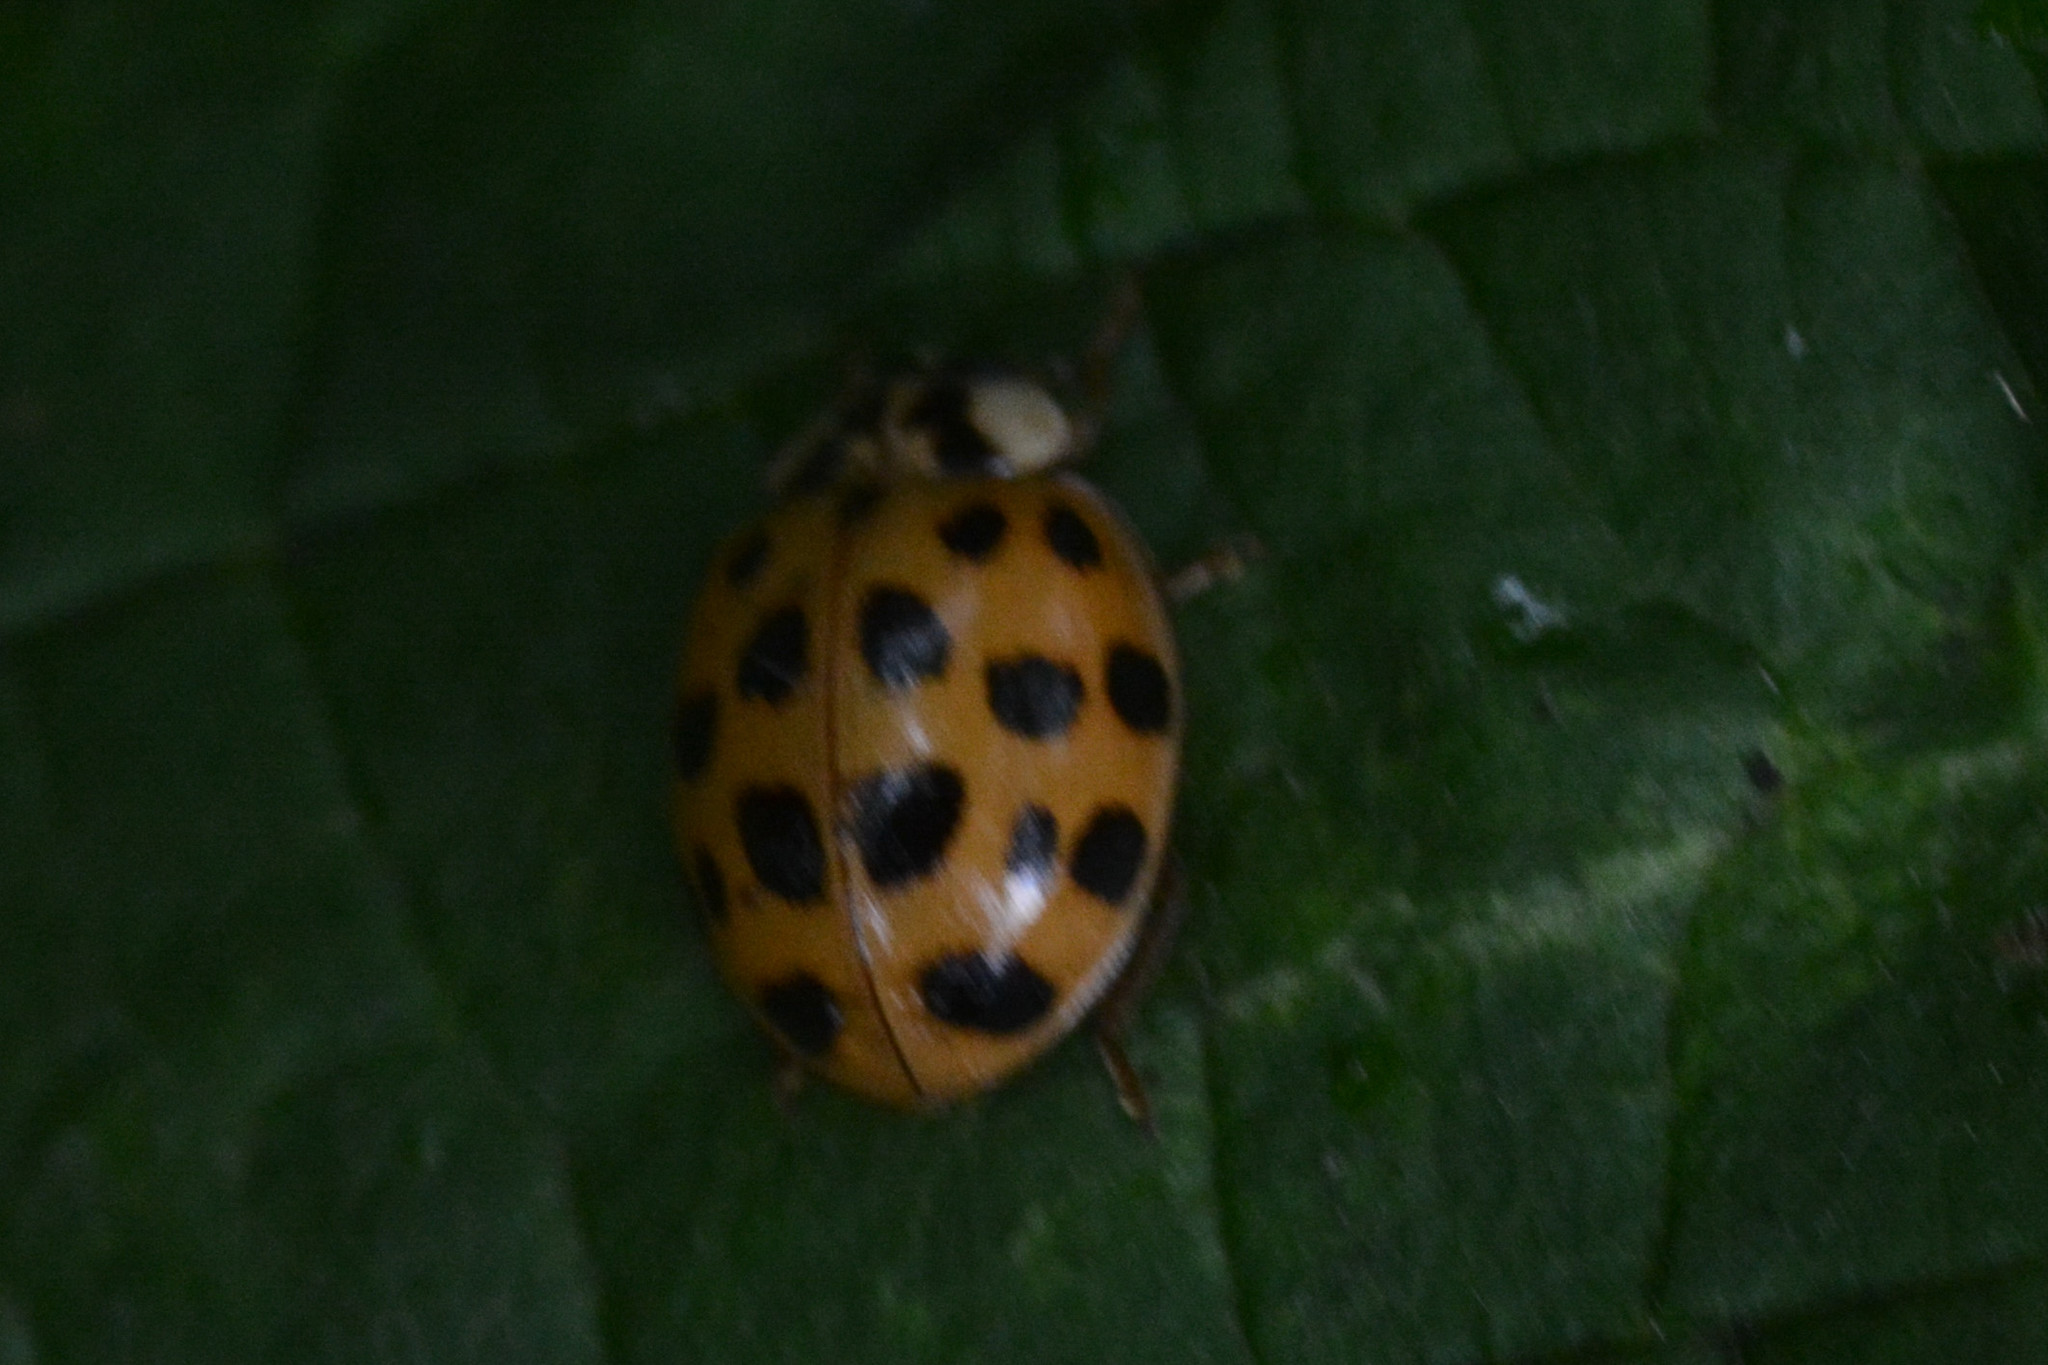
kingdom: Animalia
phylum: Arthropoda
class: Insecta
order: Coleoptera
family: Coccinellidae
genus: Harmonia
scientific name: Harmonia axyridis
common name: Harlequin ladybird
